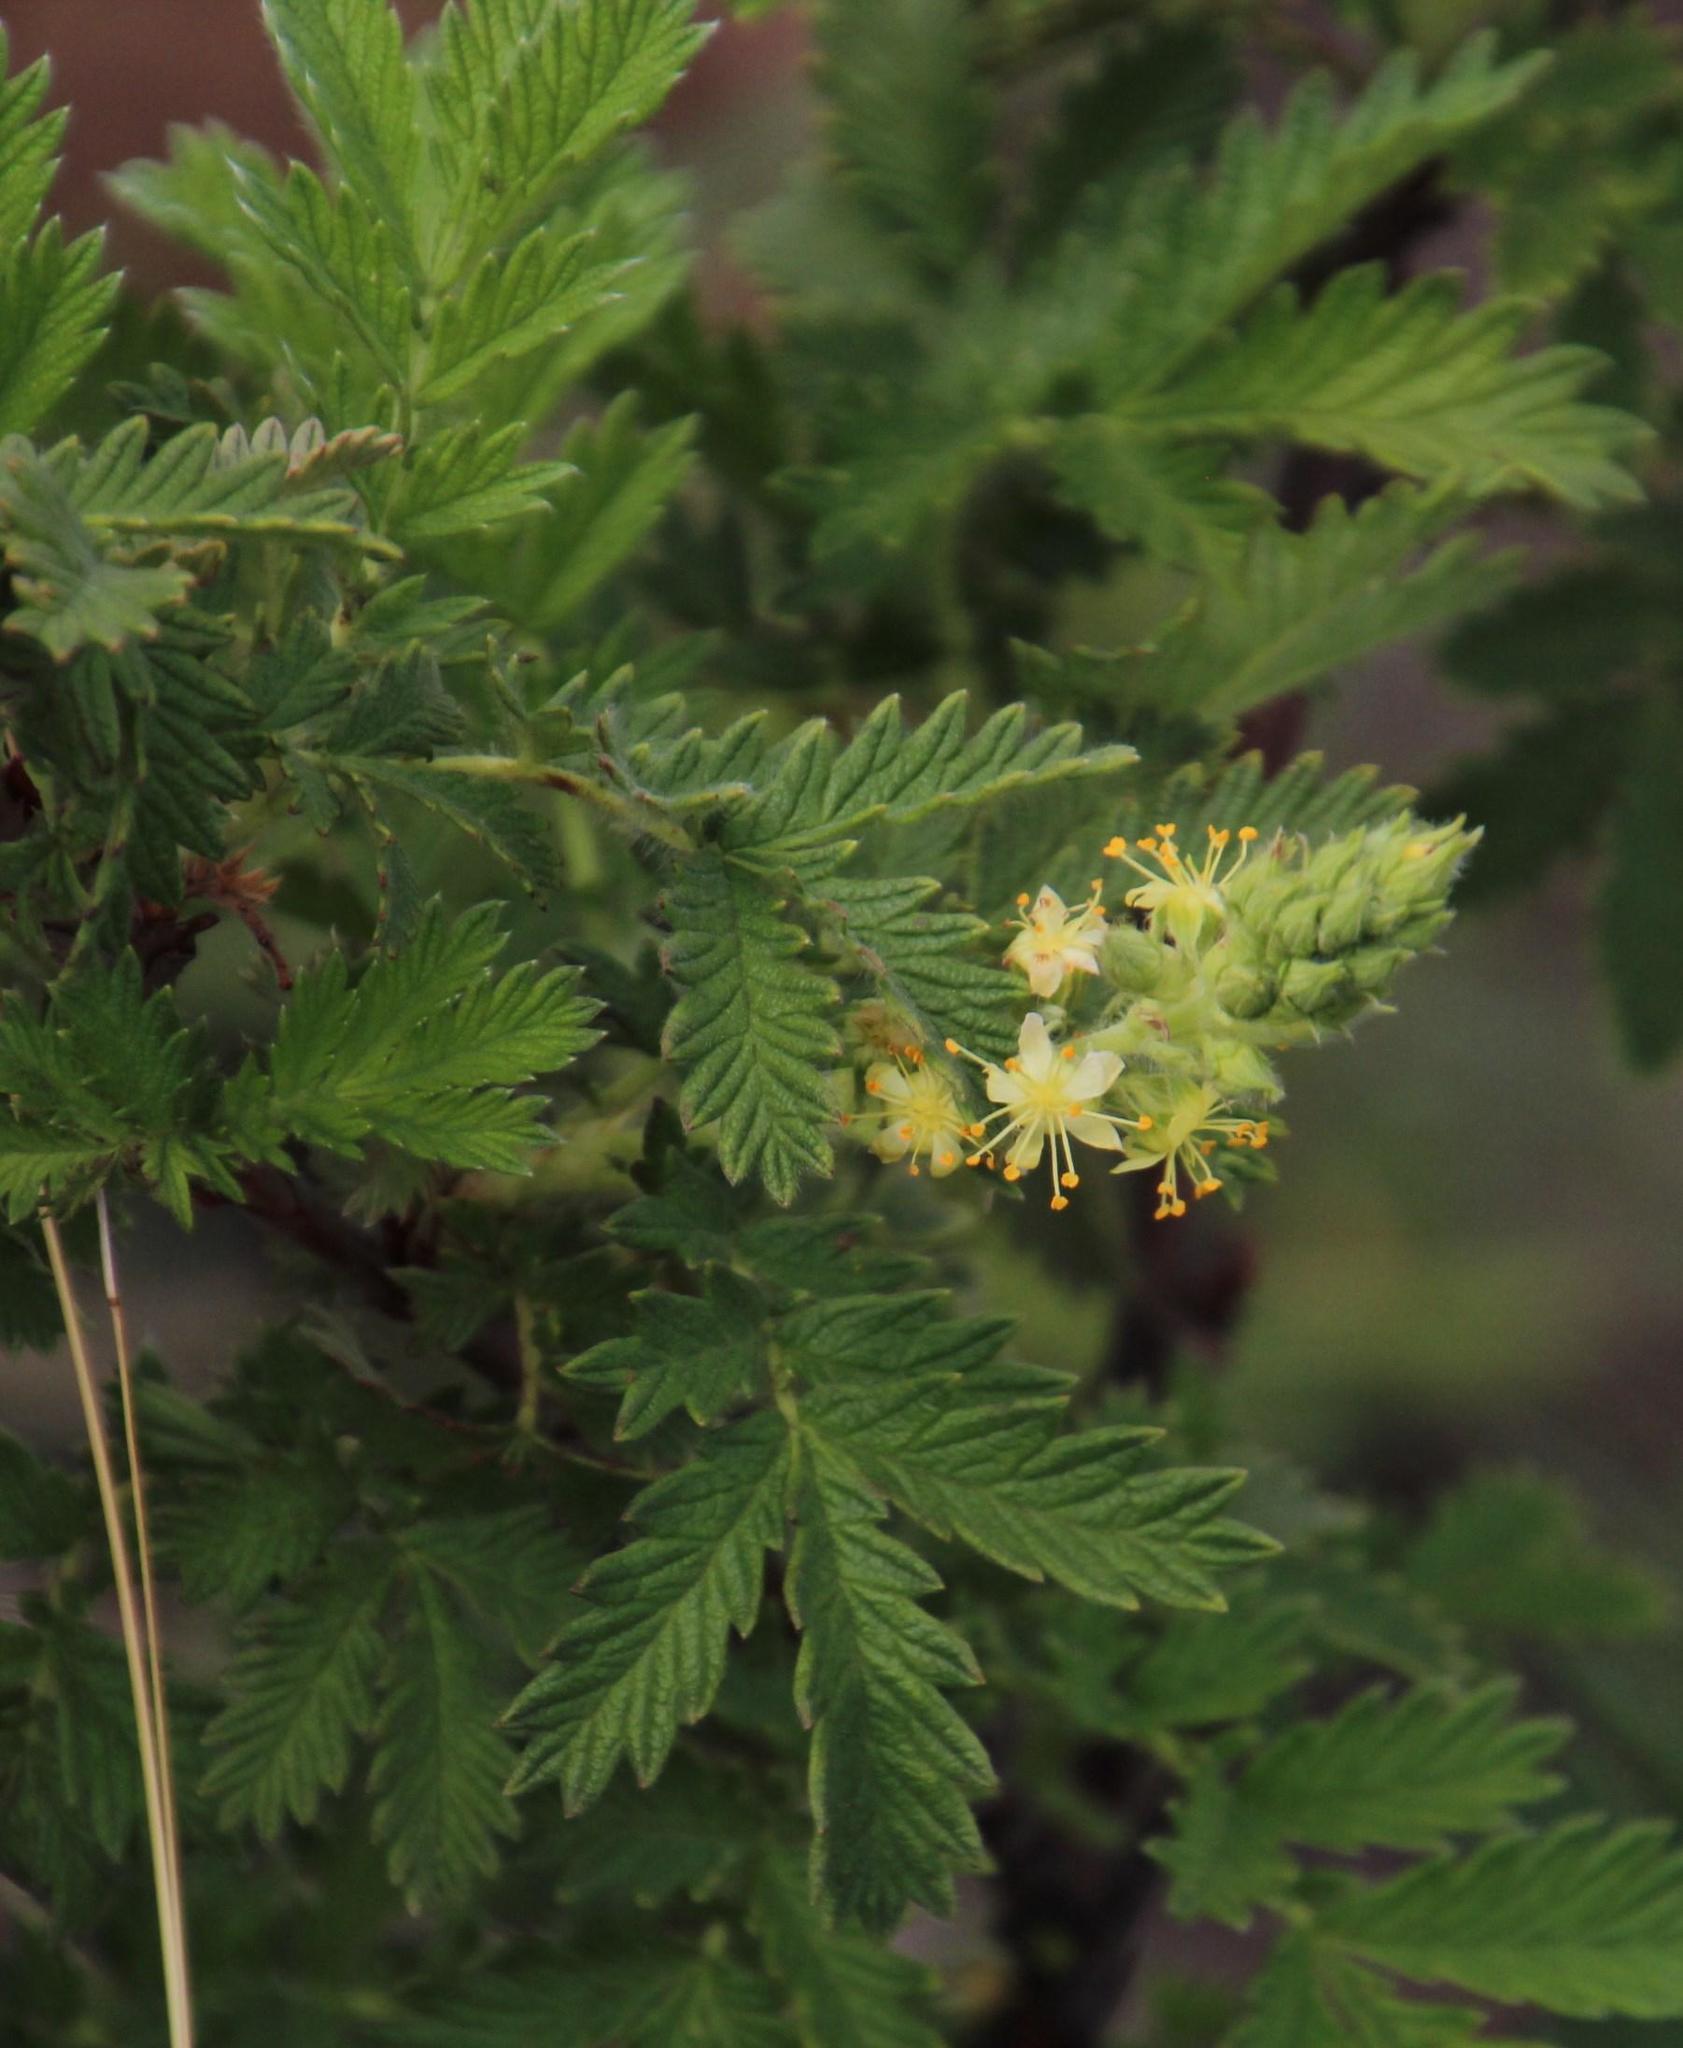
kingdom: Plantae
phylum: Tracheophyta
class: Magnoliopsida
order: Rosales
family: Rosaceae
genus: Leucosidea
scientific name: Leucosidea sericea
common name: Oldwood
